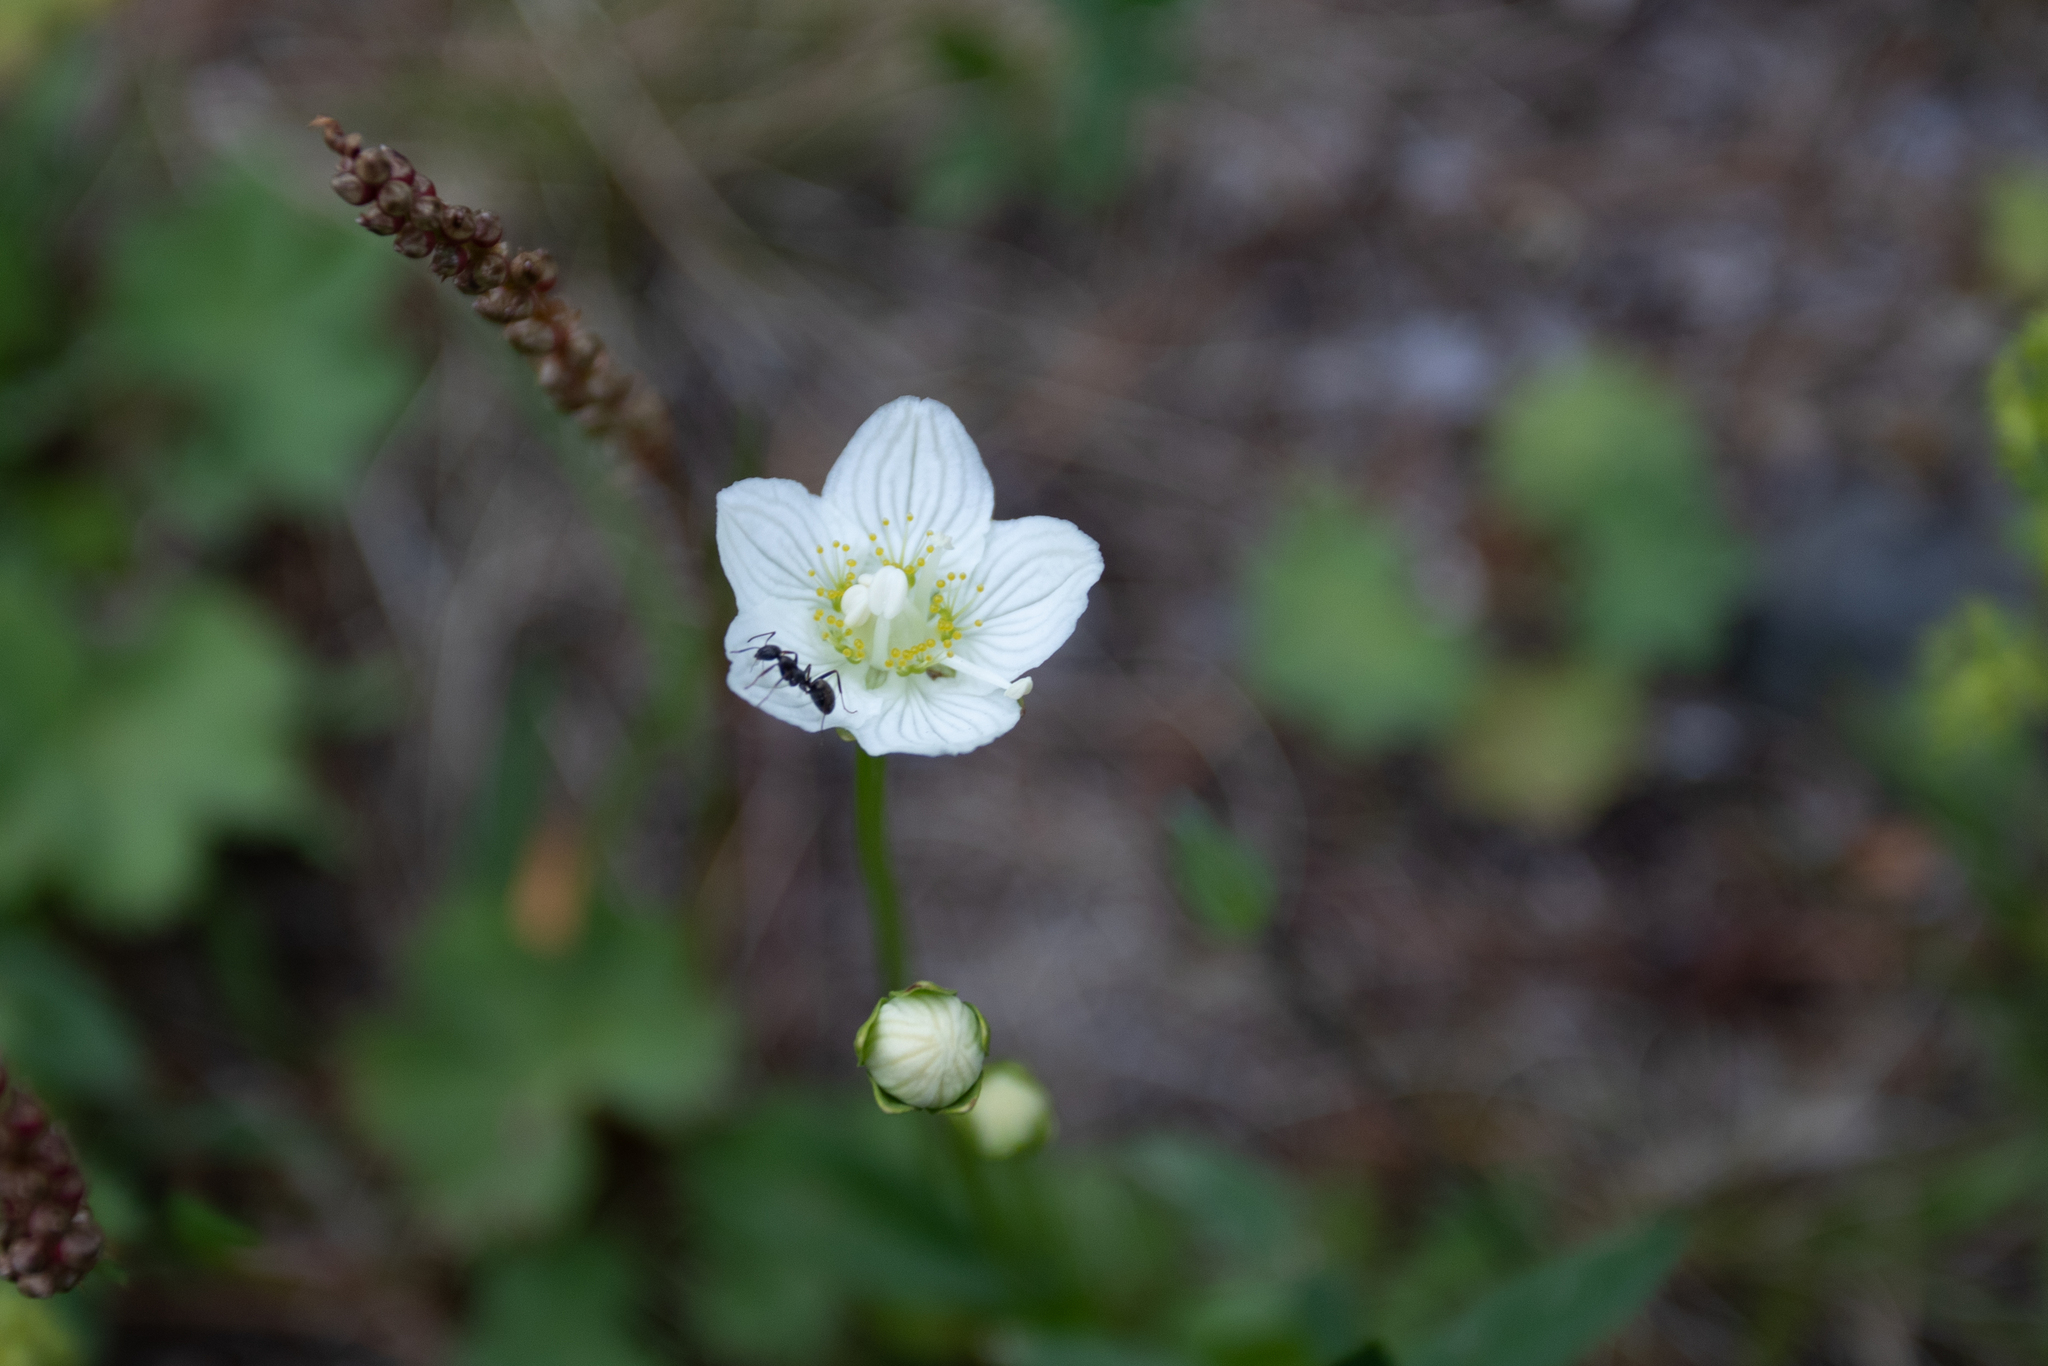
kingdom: Plantae
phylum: Tracheophyta
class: Magnoliopsida
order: Celastrales
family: Parnassiaceae
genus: Parnassia
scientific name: Parnassia palustris
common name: Grass-of-parnassus
